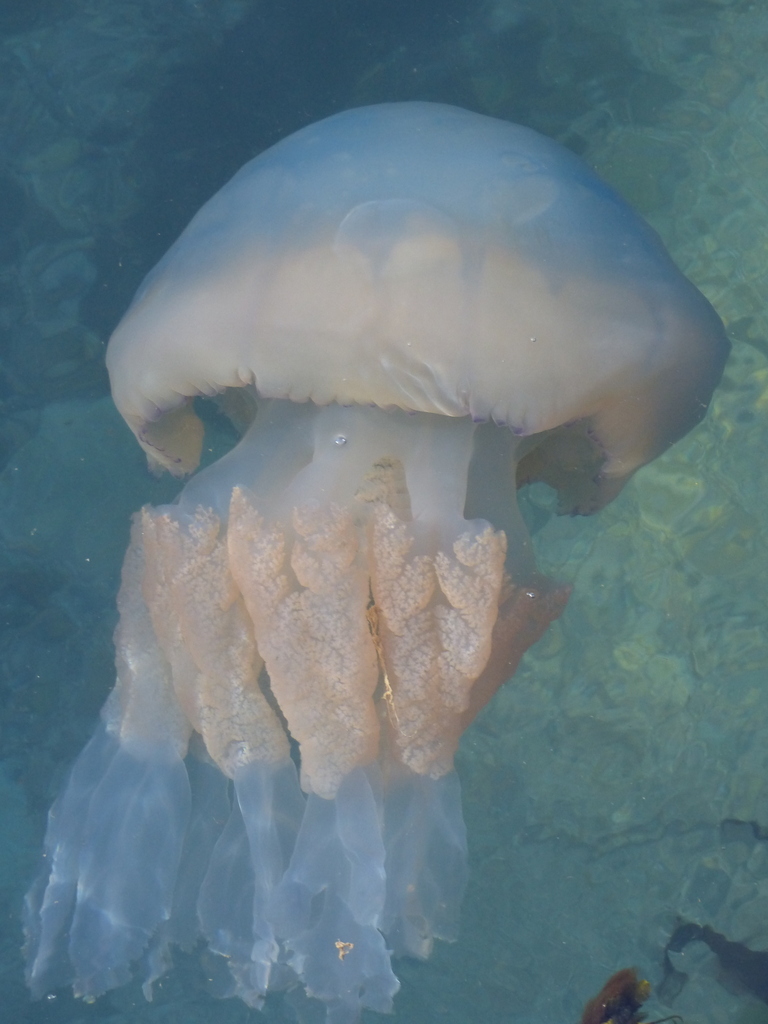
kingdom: Animalia
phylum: Cnidaria
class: Scyphozoa
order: Rhizostomeae
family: Rhizostomatidae
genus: Rhizostoma
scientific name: Rhizostoma octopus
